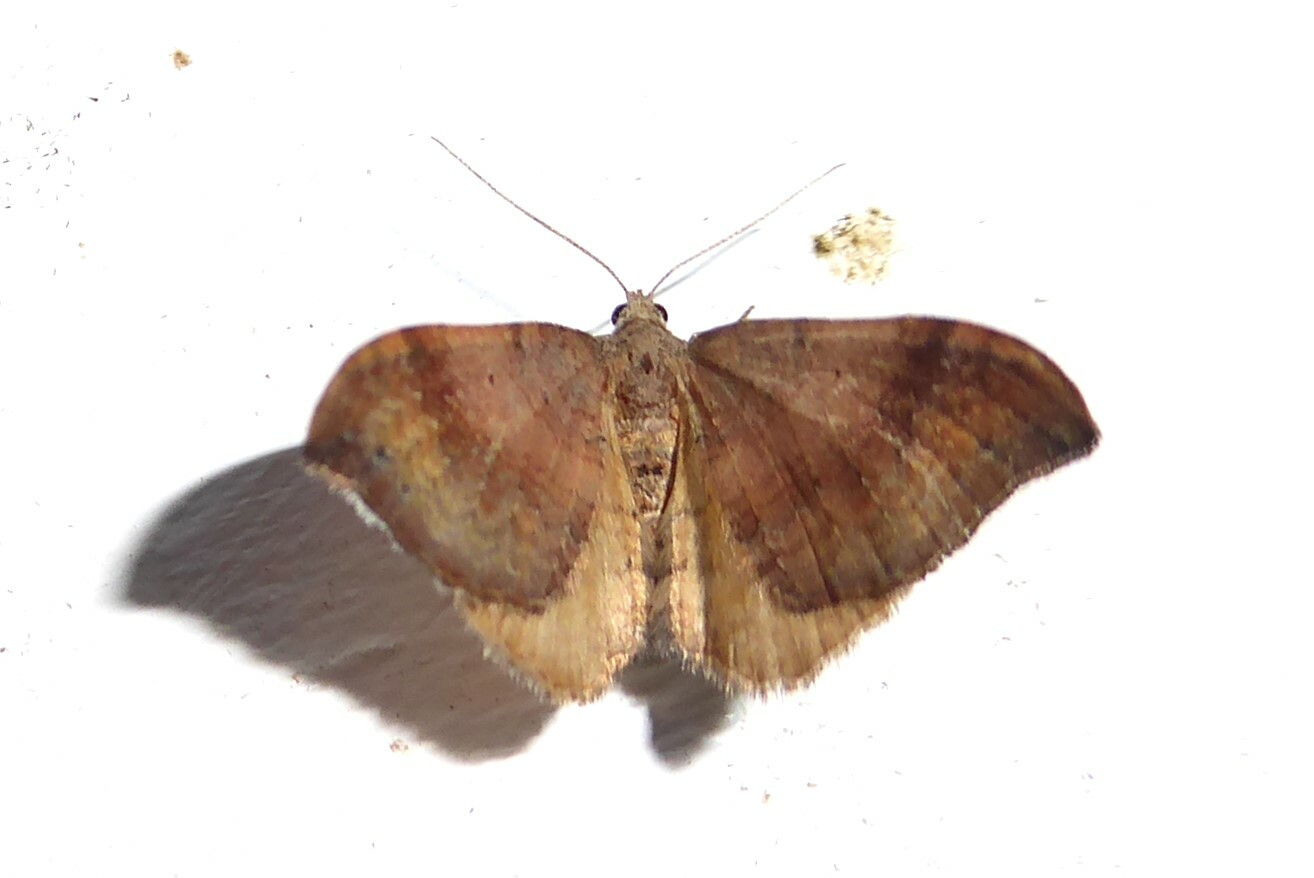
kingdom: Animalia
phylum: Arthropoda
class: Insecta
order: Lepidoptera
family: Geometridae
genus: Homodotis
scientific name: Homodotis megaspilata
